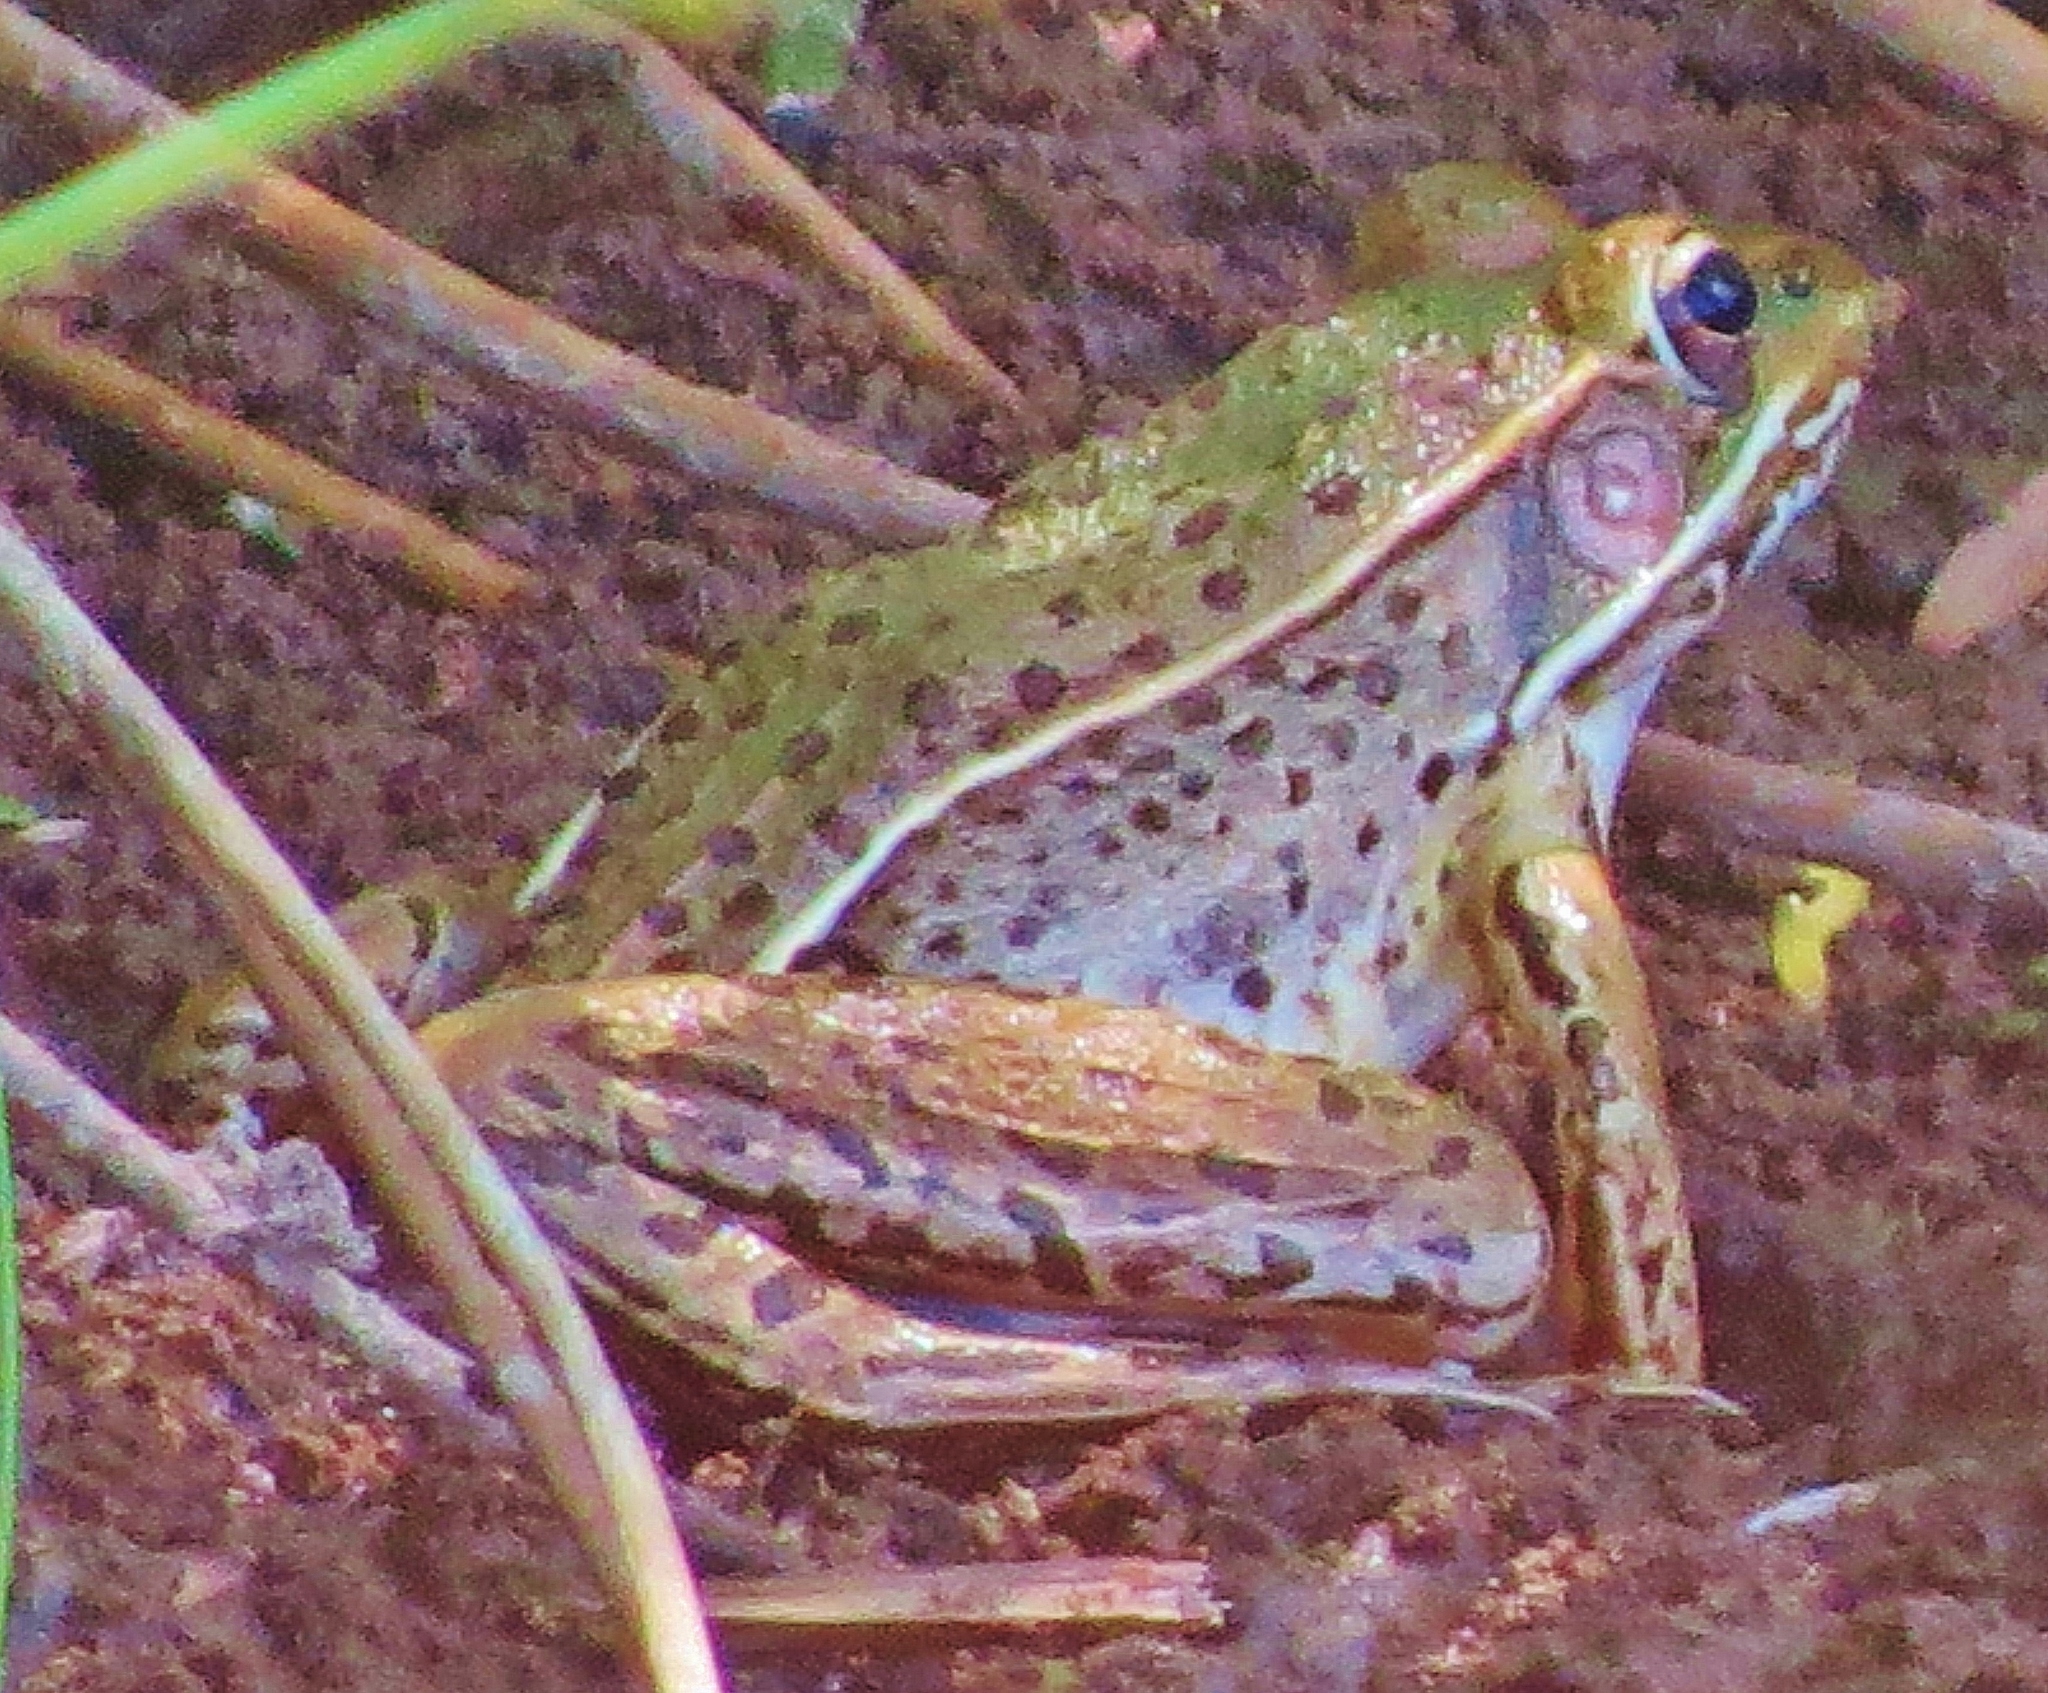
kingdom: Animalia
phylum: Chordata
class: Amphibia
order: Anura
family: Ranidae
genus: Lithobates
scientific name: Lithobates sphenocephalus
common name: Southern leopard frog
